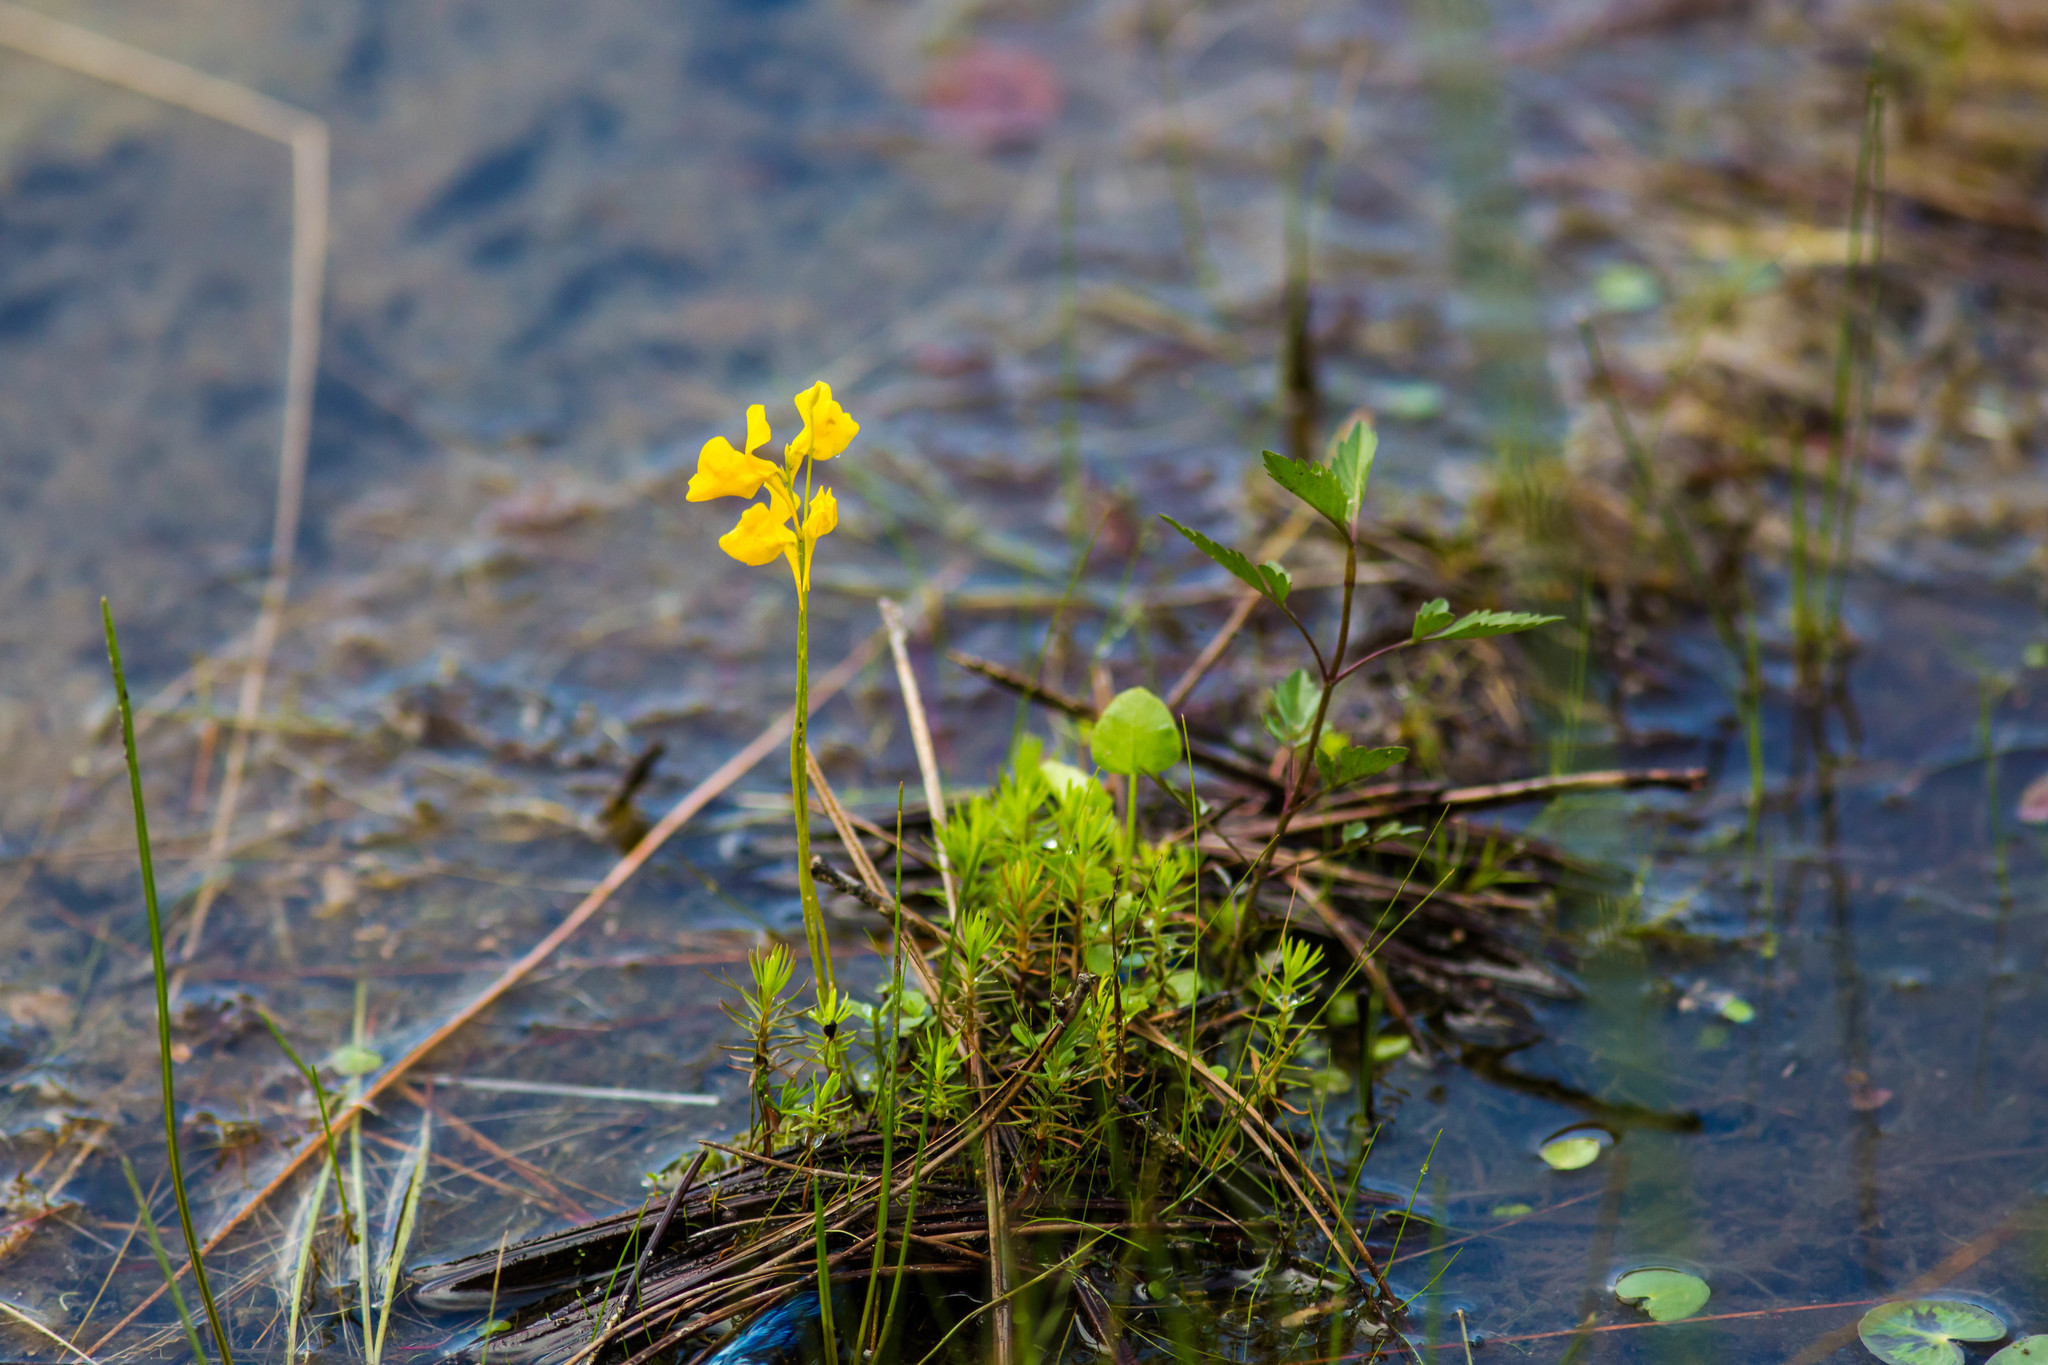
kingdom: Plantae
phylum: Tracheophyta
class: Magnoliopsida
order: Lamiales
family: Lentibulariaceae
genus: Utricularia
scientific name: Utricularia cornuta
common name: Horned bladderwort
